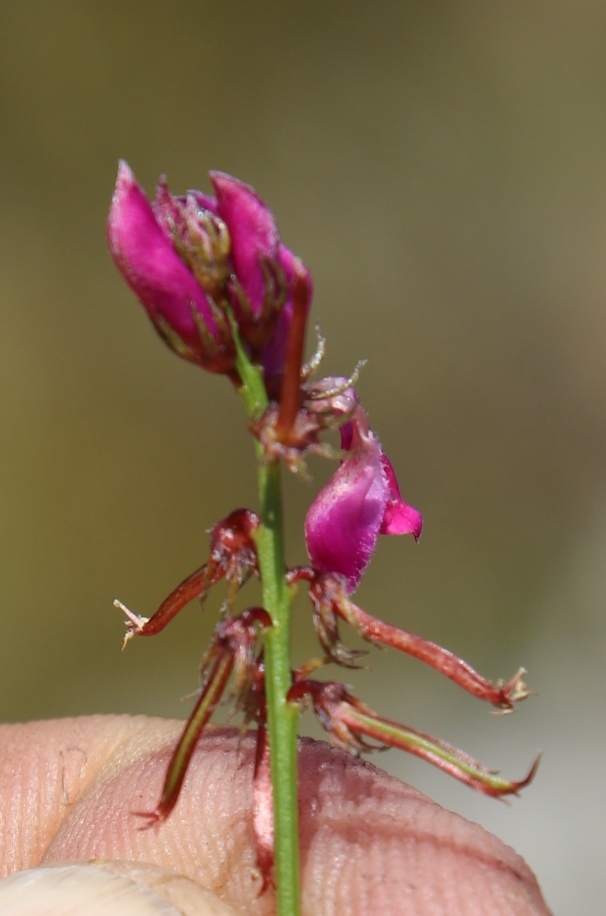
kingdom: Plantae
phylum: Tracheophyta
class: Magnoliopsida
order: Fabales
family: Fabaceae
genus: Indigofera
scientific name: Indigofera capillaris
